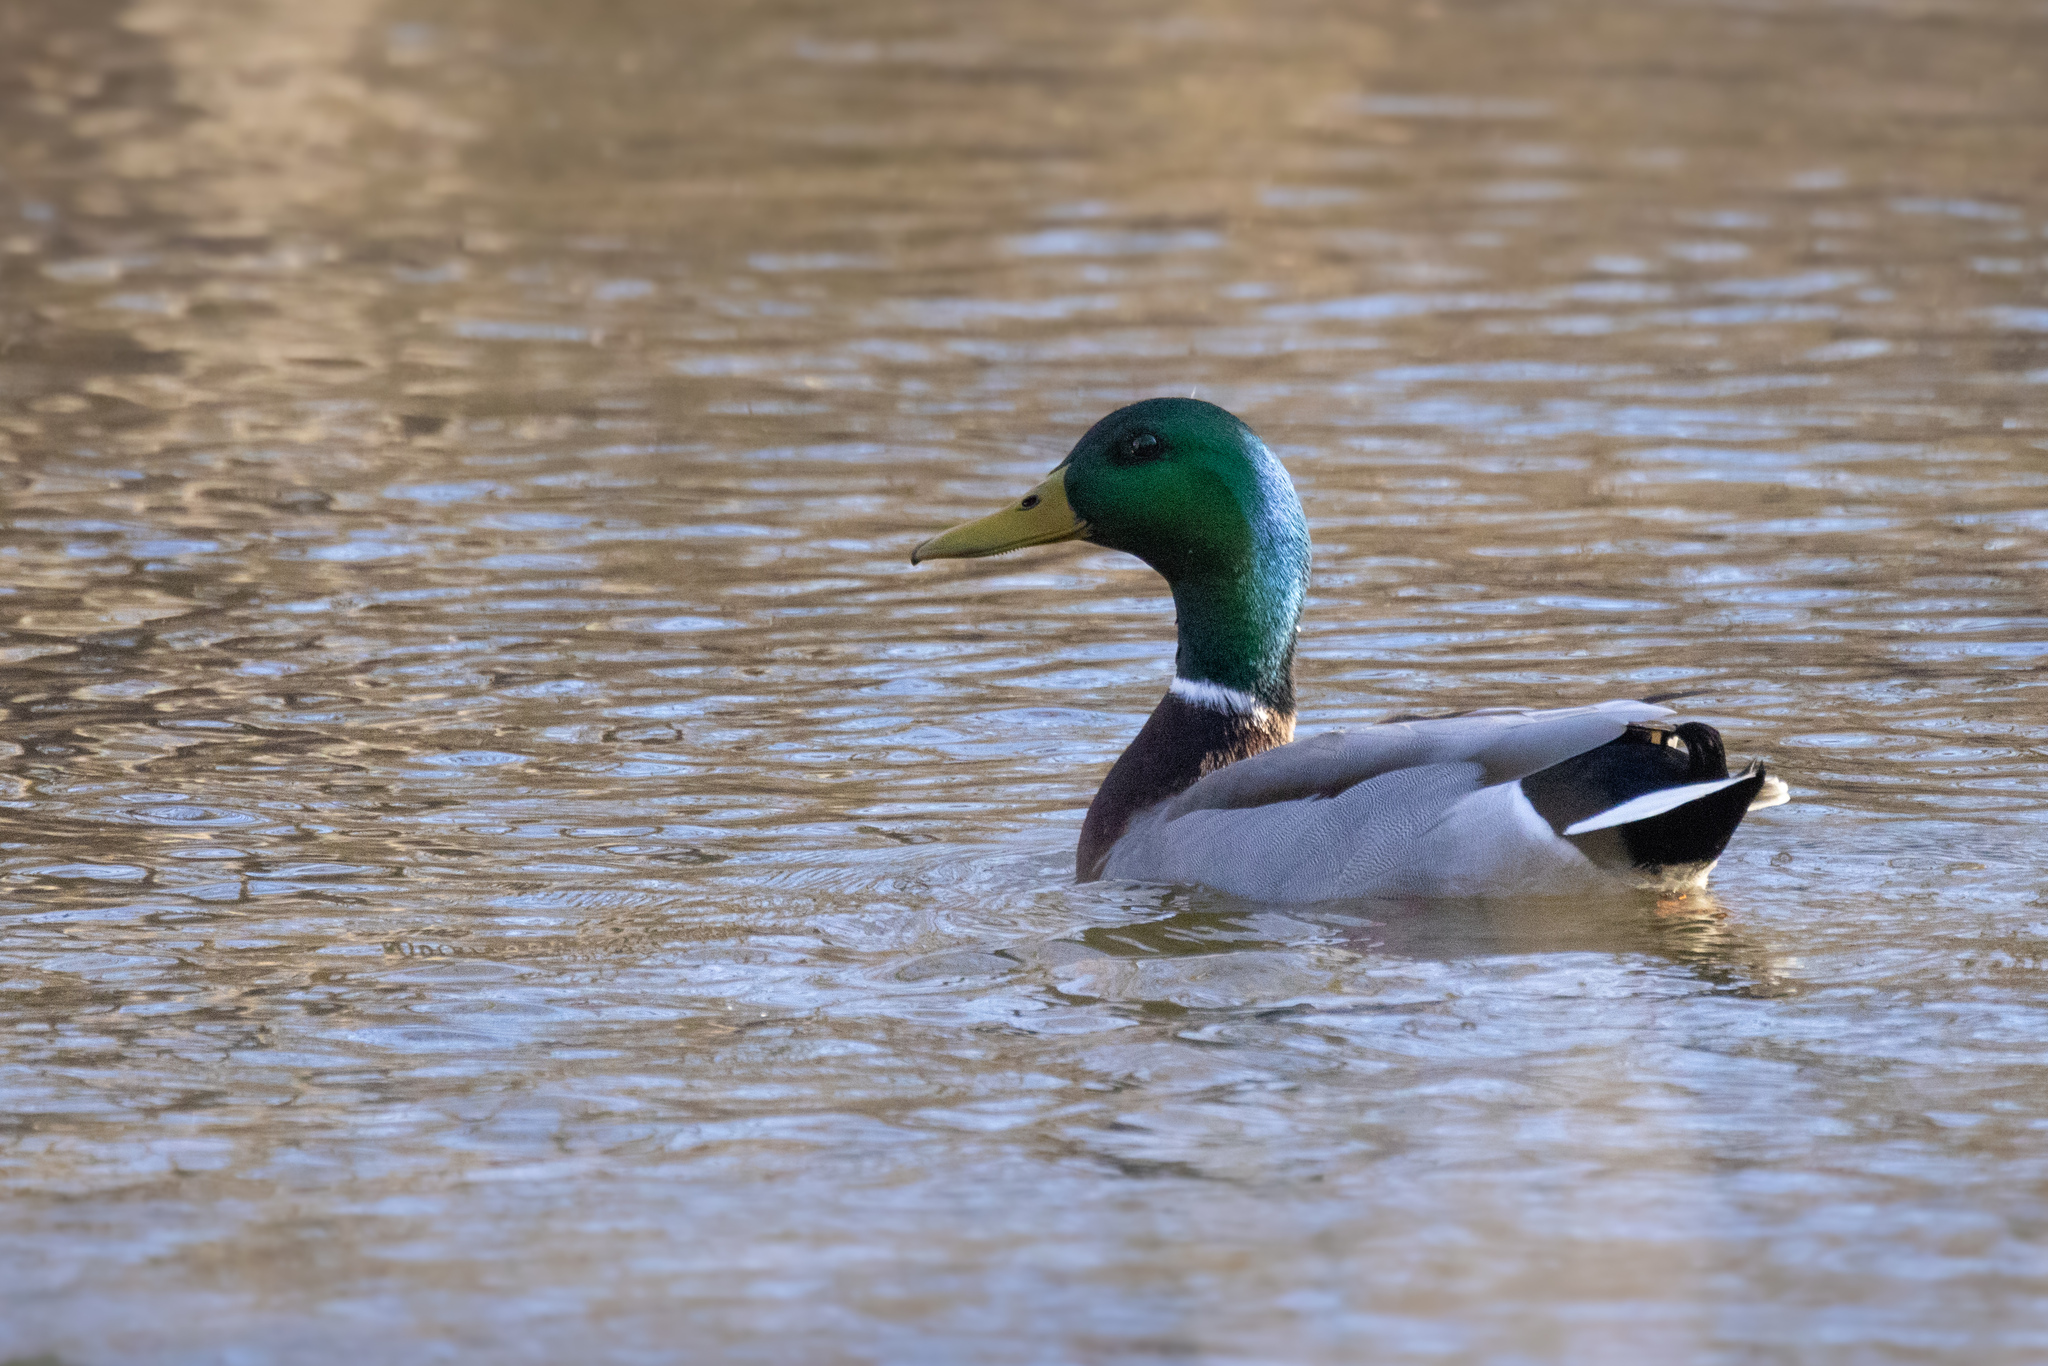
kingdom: Animalia
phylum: Chordata
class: Aves
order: Anseriformes
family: Anatidae
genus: Anas
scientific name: Anas platyrhynchos
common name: Mallard
